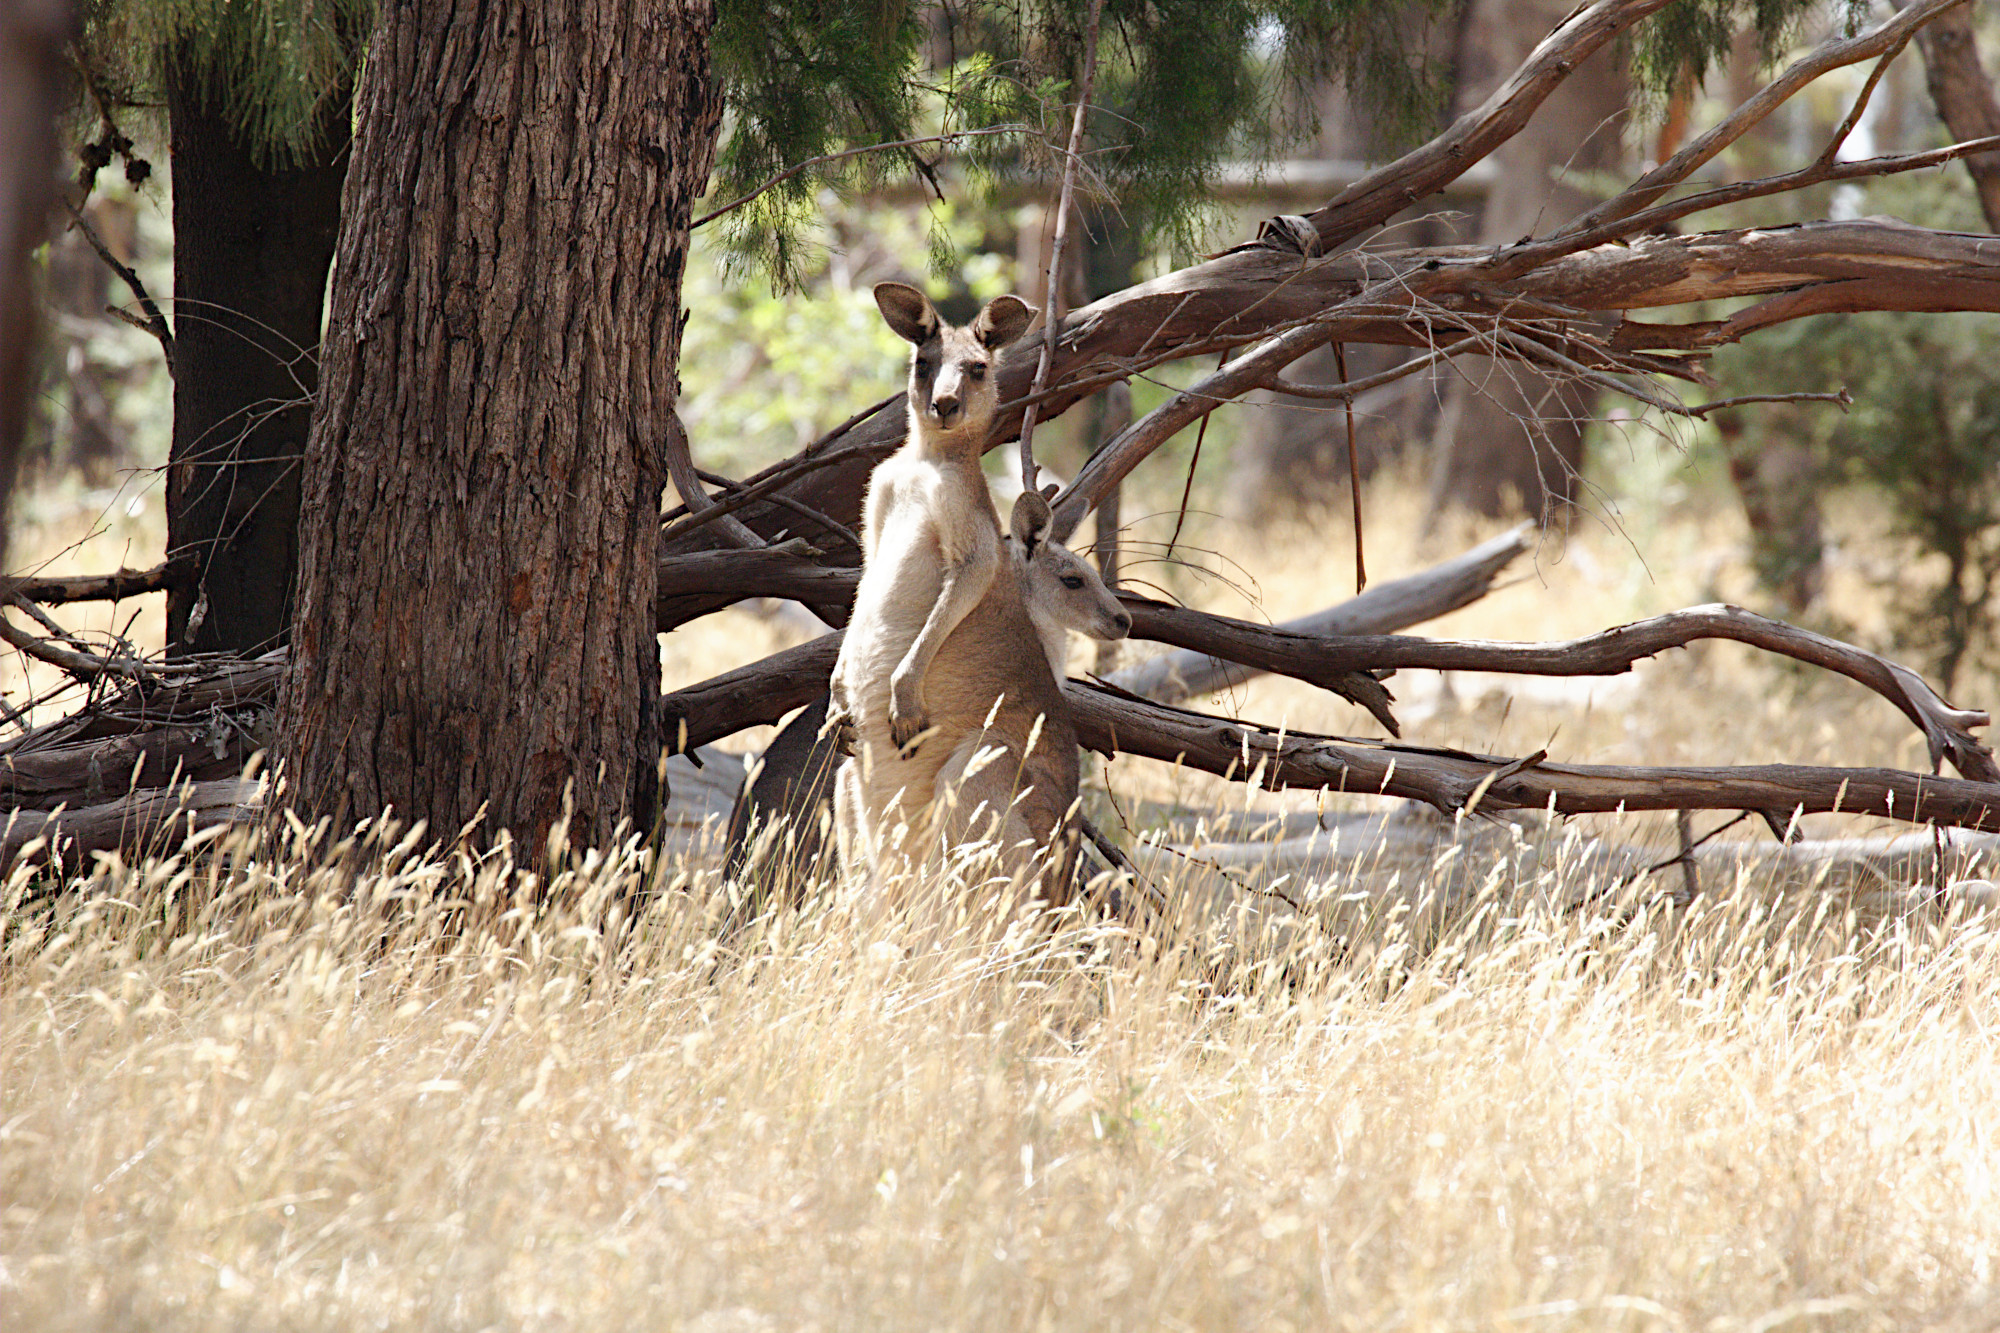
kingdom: Animalia
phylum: Chordata
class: Mammalia
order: Diprotodontia
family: Macropodidae
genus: Macropus
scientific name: Macropus giganteus
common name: Eastern grey kangaroo
